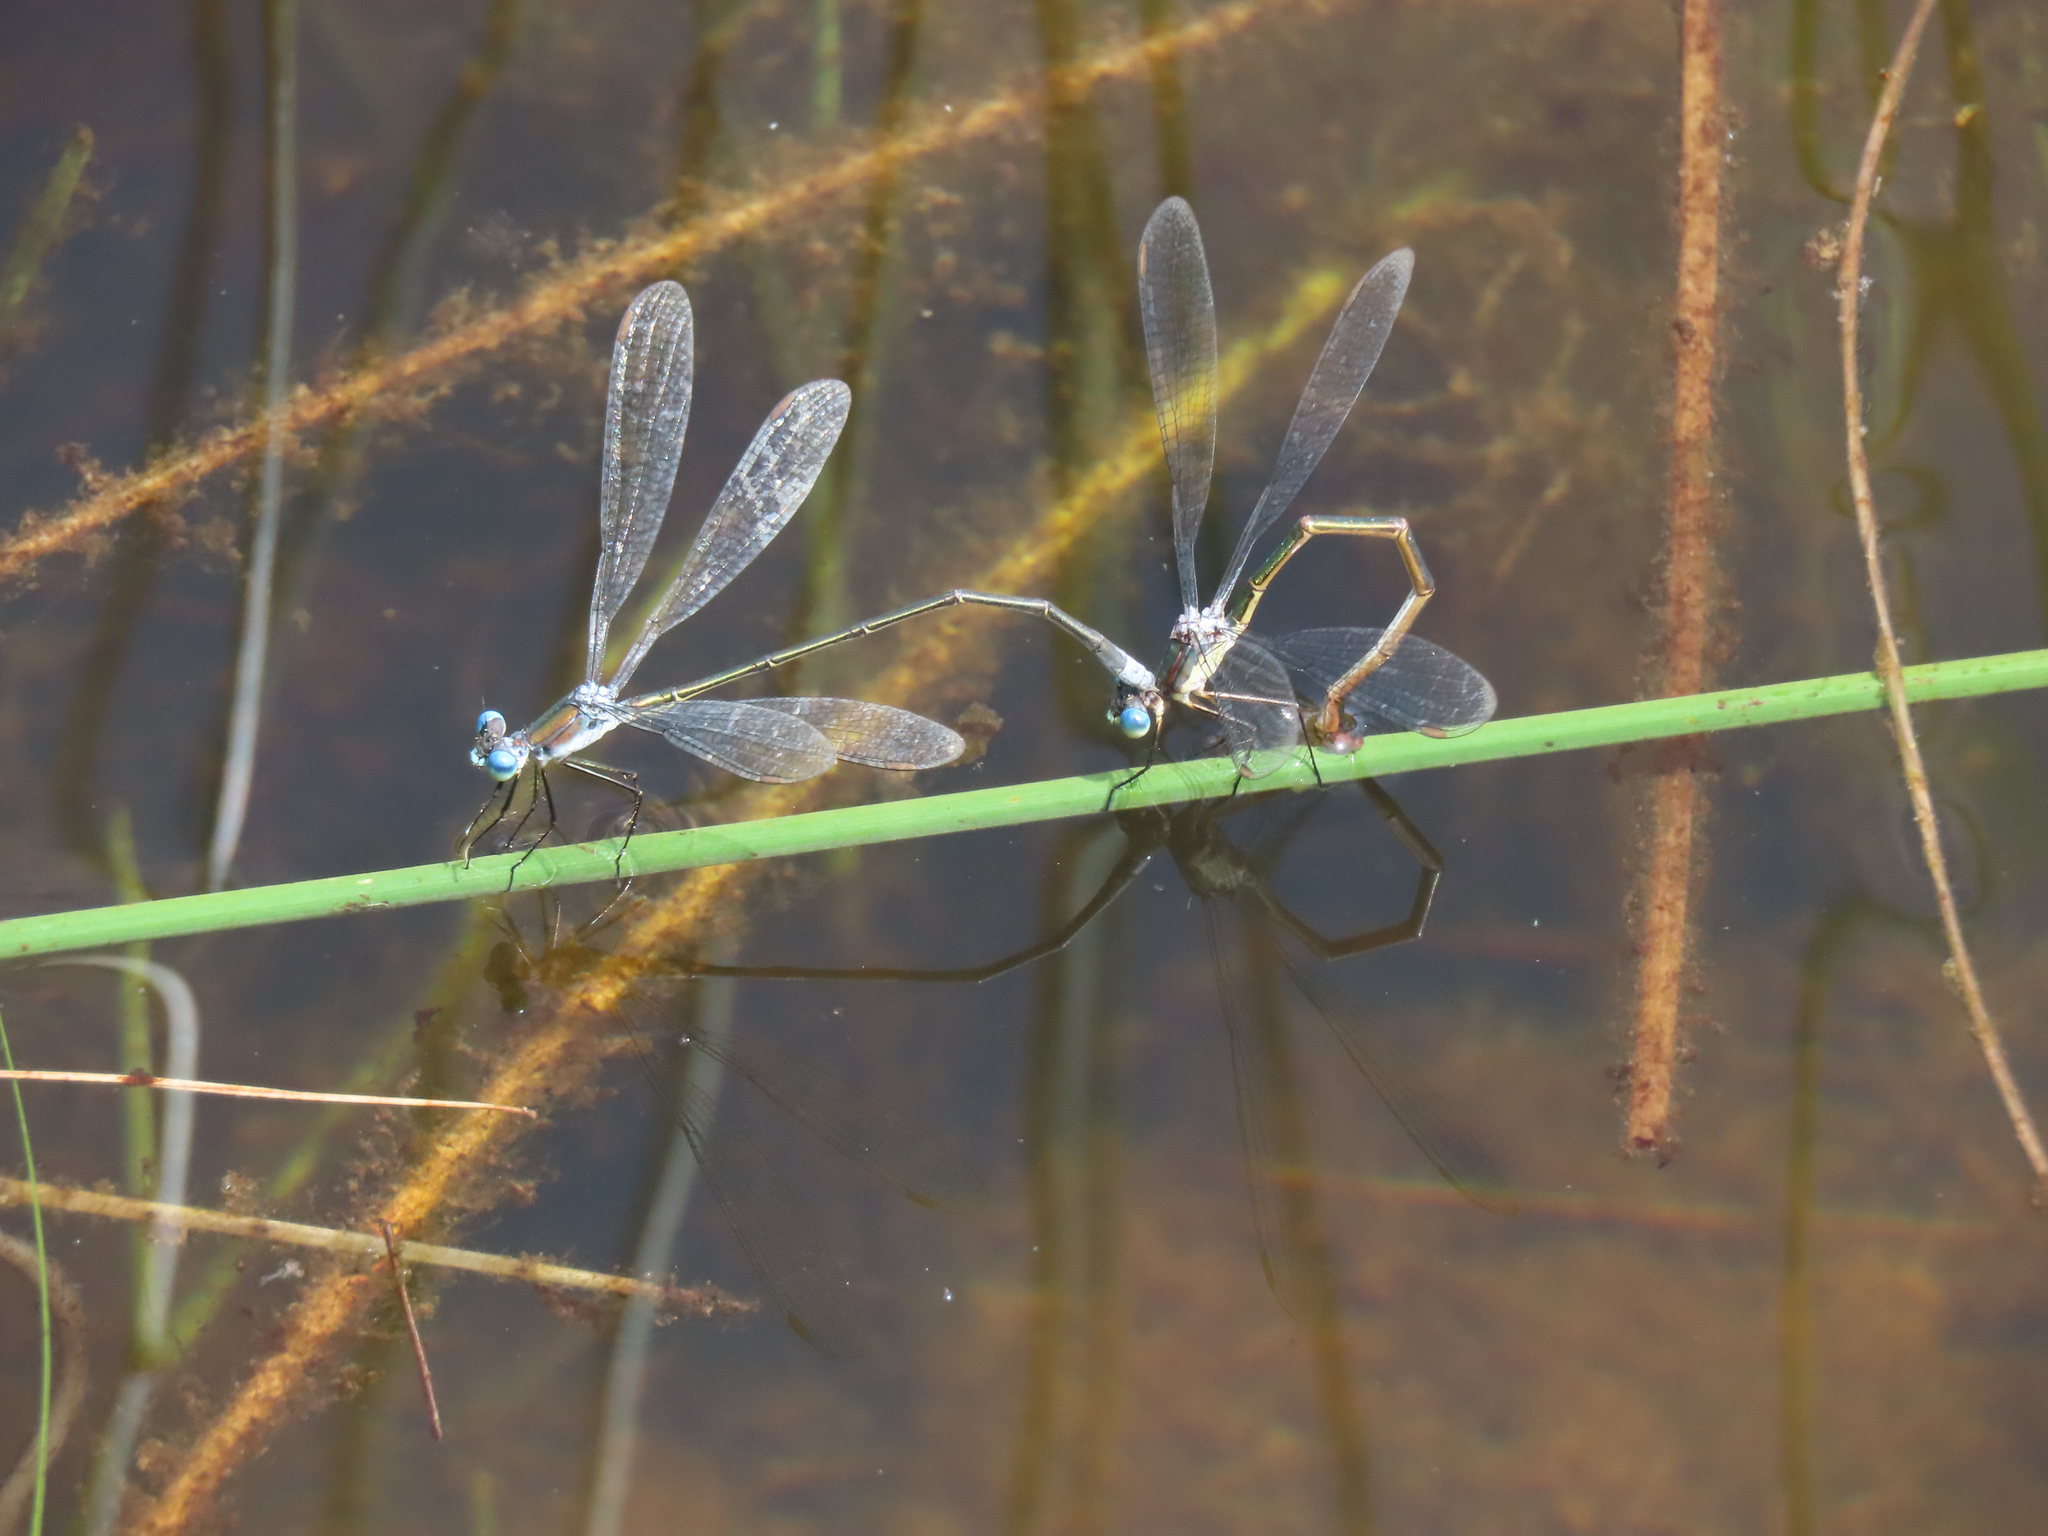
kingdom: Animalia
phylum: Arthropoda
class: Insecta
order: Odonata
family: Lestidae
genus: Lestes
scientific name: Lestes vigilax
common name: Swamp spreadwing
